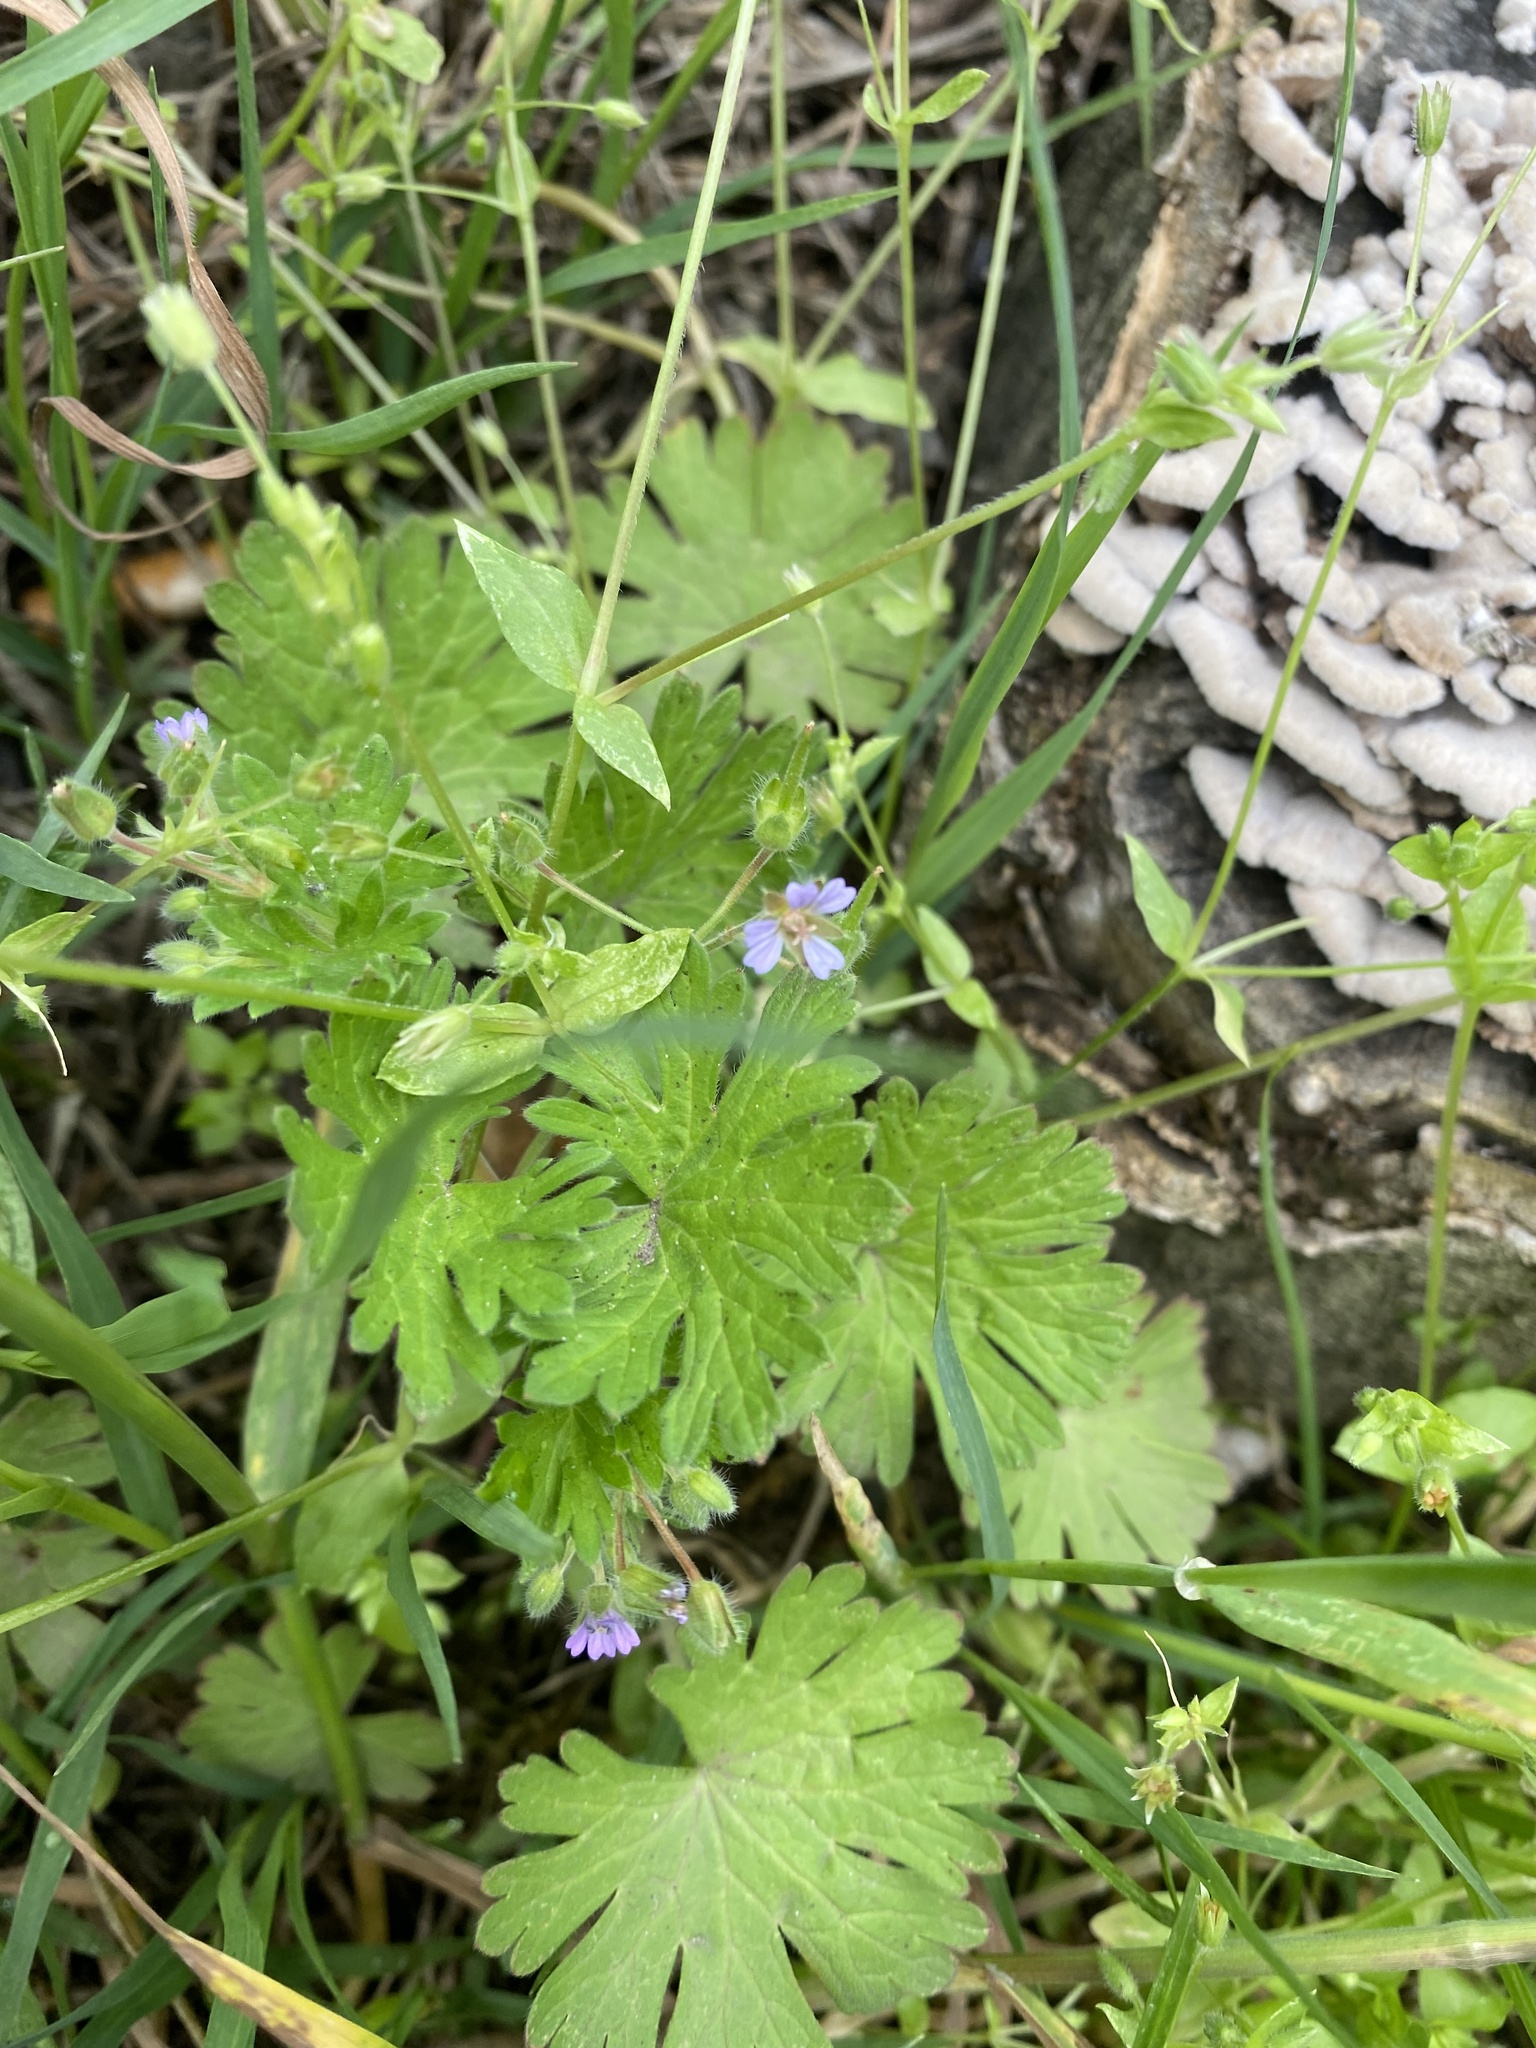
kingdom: Plantae
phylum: Tracheophyta
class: Magnoliopsida
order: Geraniales
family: Geraniaceae
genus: Geranium
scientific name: Geranium pusillum
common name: Small geranium
